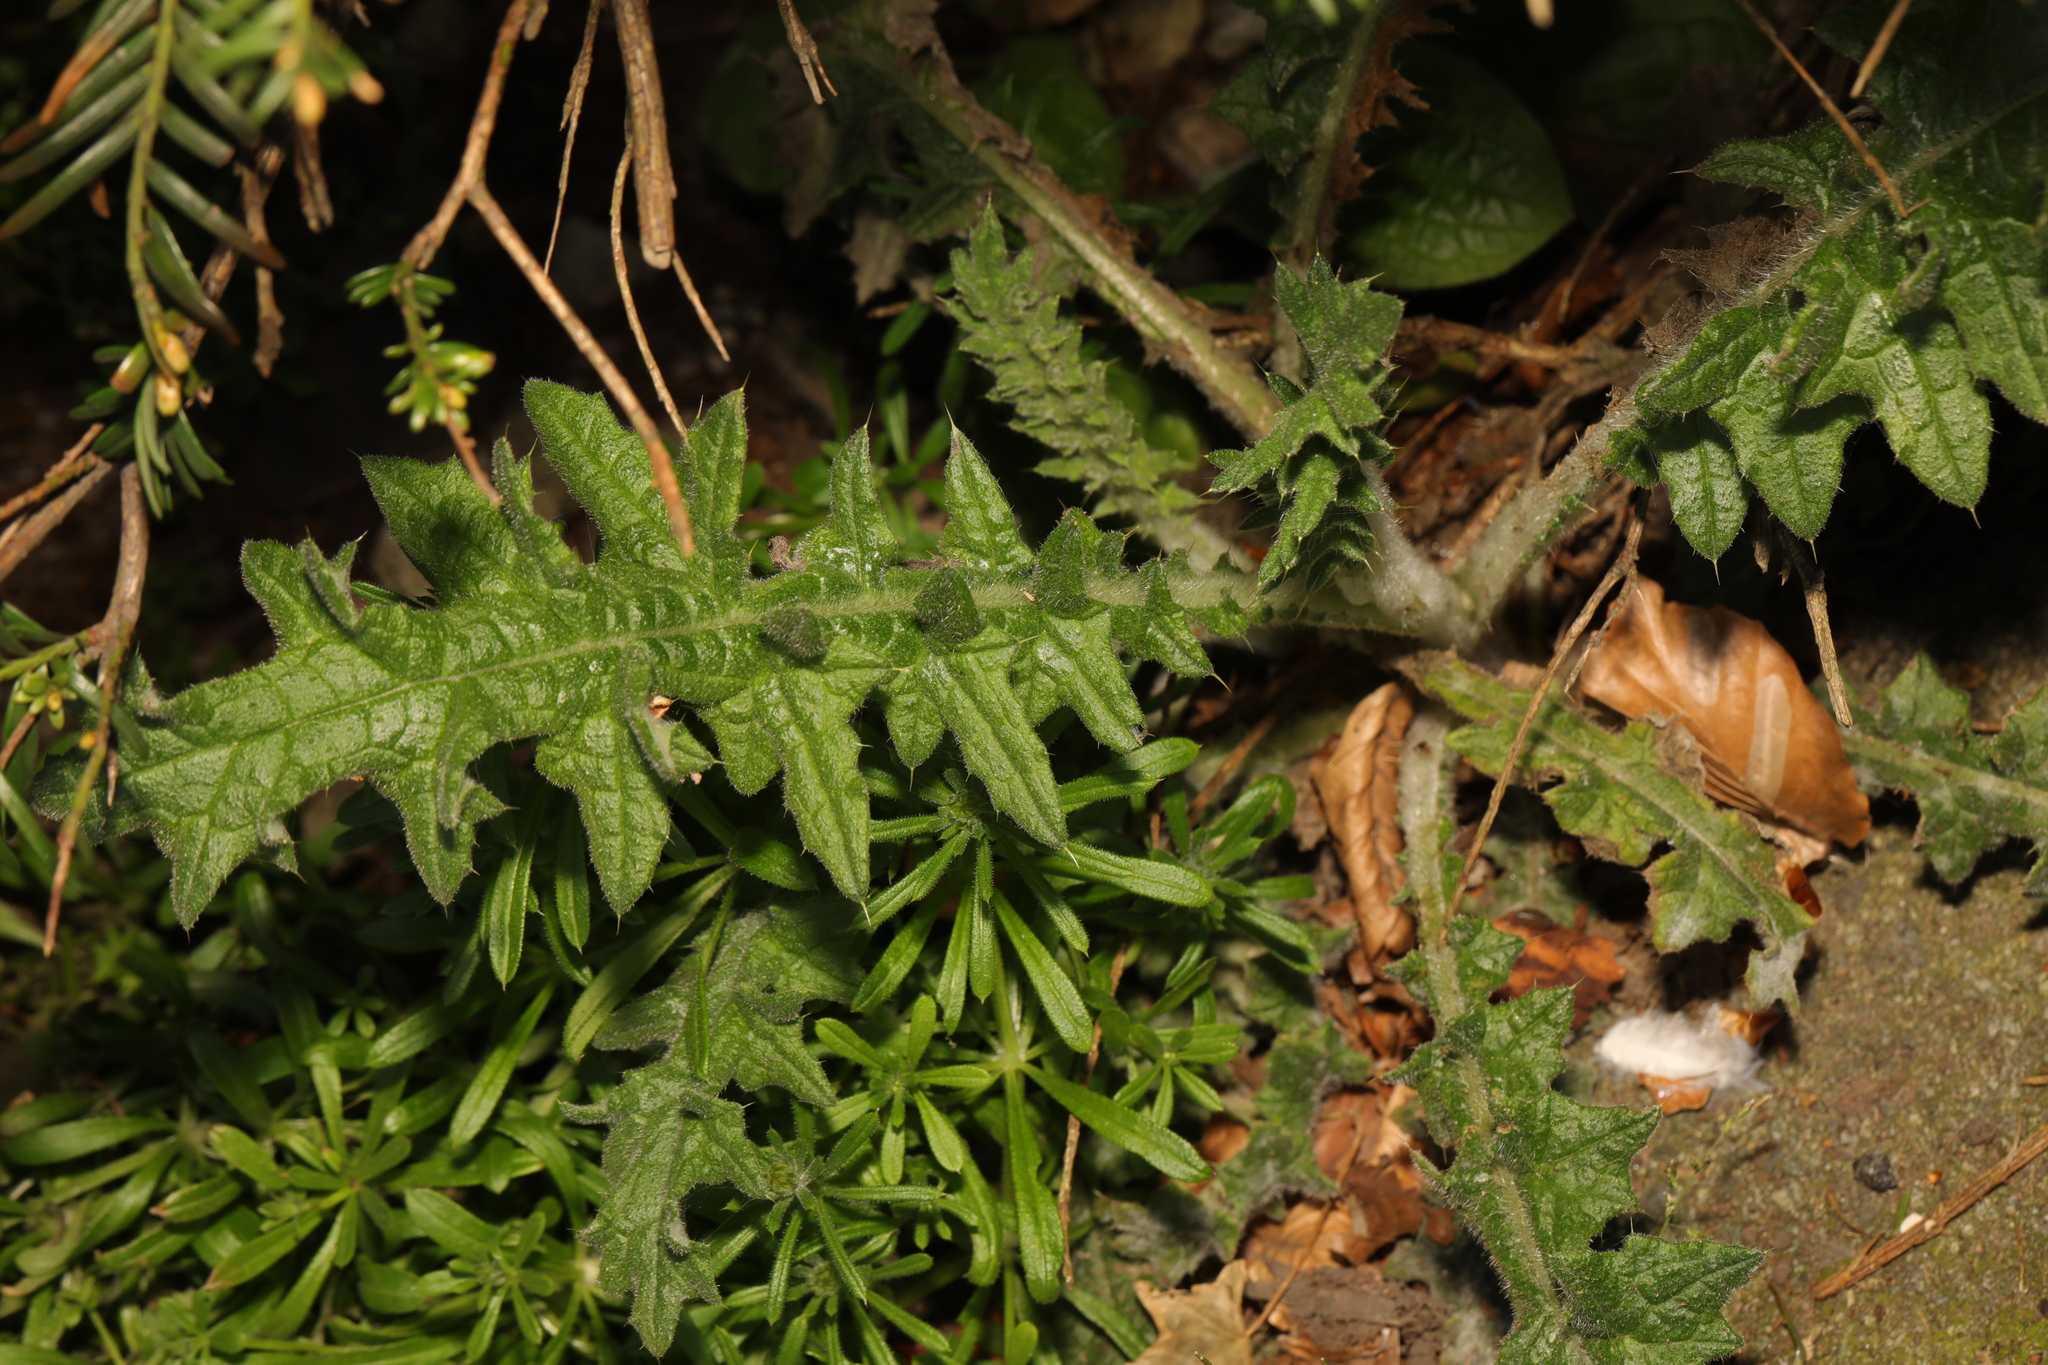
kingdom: Plantae
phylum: Tracheophyta
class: Magnoliopsida
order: Asterales
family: Asteraceae
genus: Cirsium
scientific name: Cirsium vulgare
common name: Bull thistle
